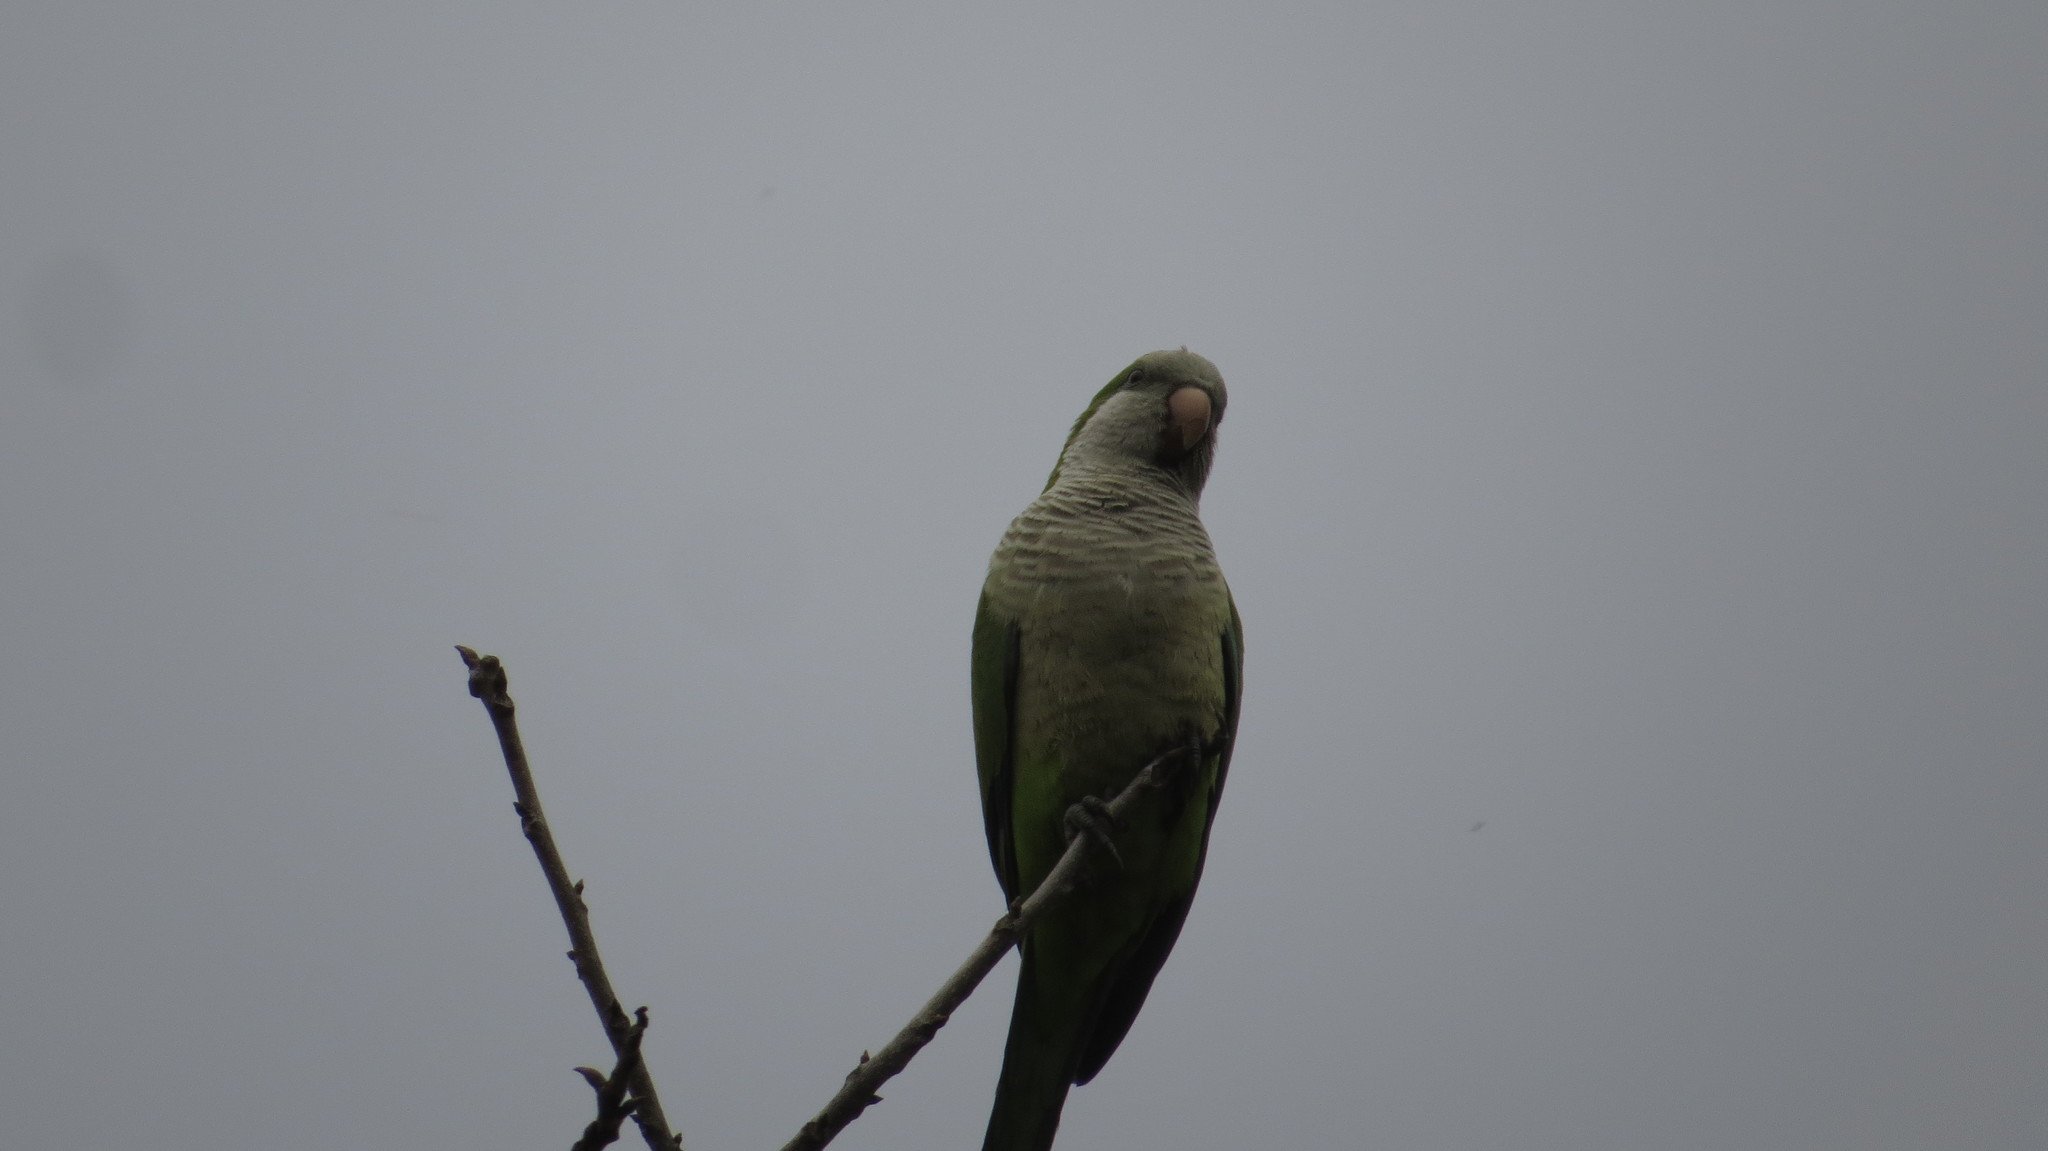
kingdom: Animalia
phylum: Chordata
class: Aves
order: Psittaciformes
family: Psittacidae
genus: Myiopsitta
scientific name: Myiopsitta monachus
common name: Monk parakeet
